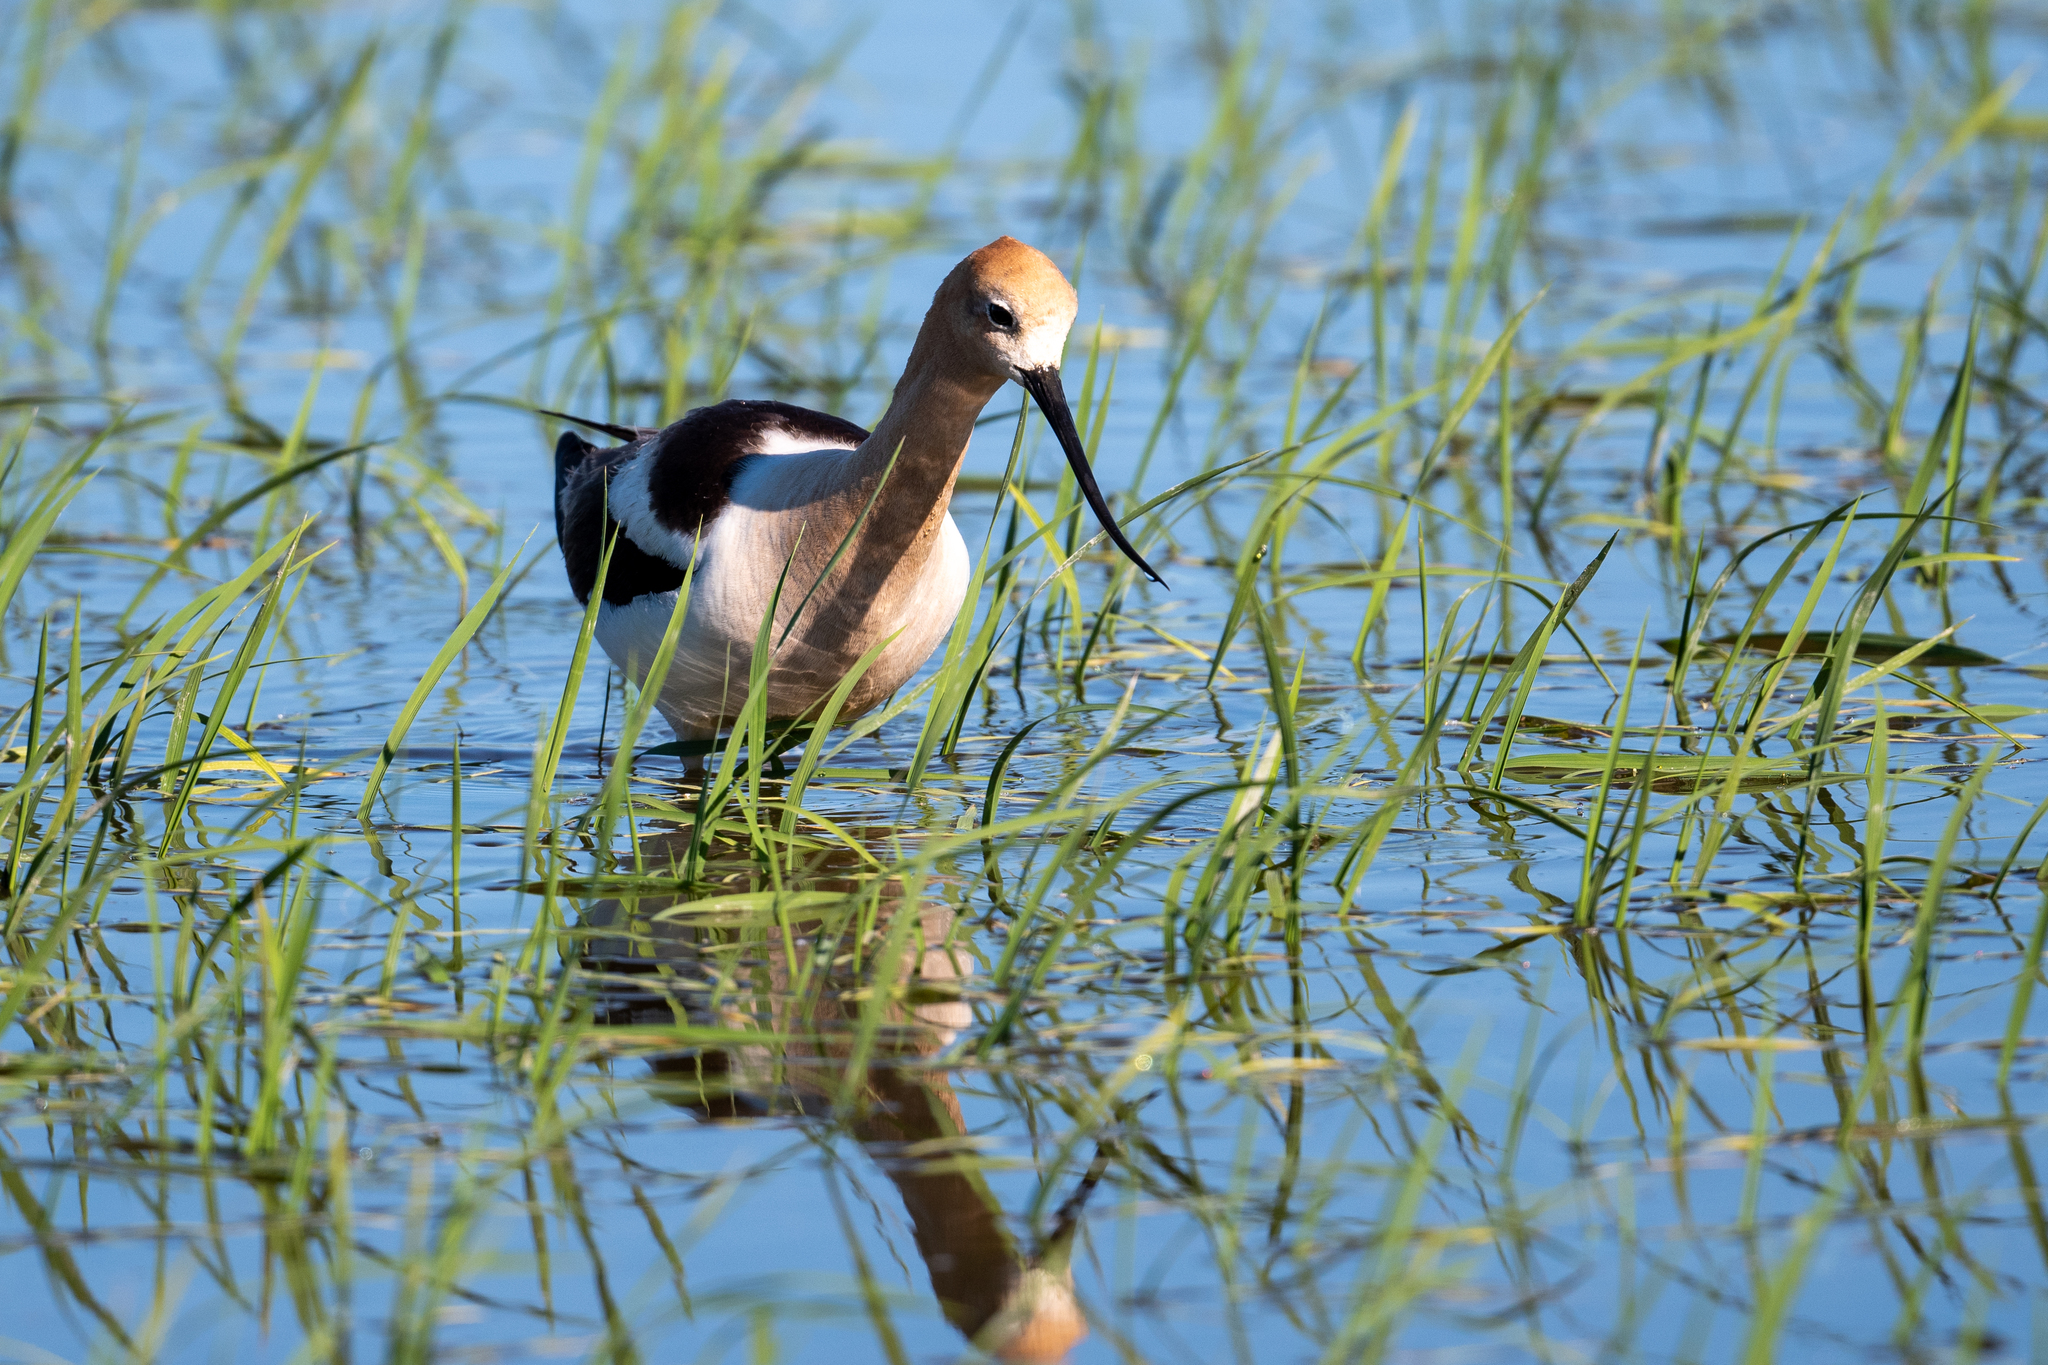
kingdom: Animalia
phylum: Chordata
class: Aves
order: Charadriiformes
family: Recurvirostridae
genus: Recurvirostra
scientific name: Recurvirostra americana
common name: American avocet
